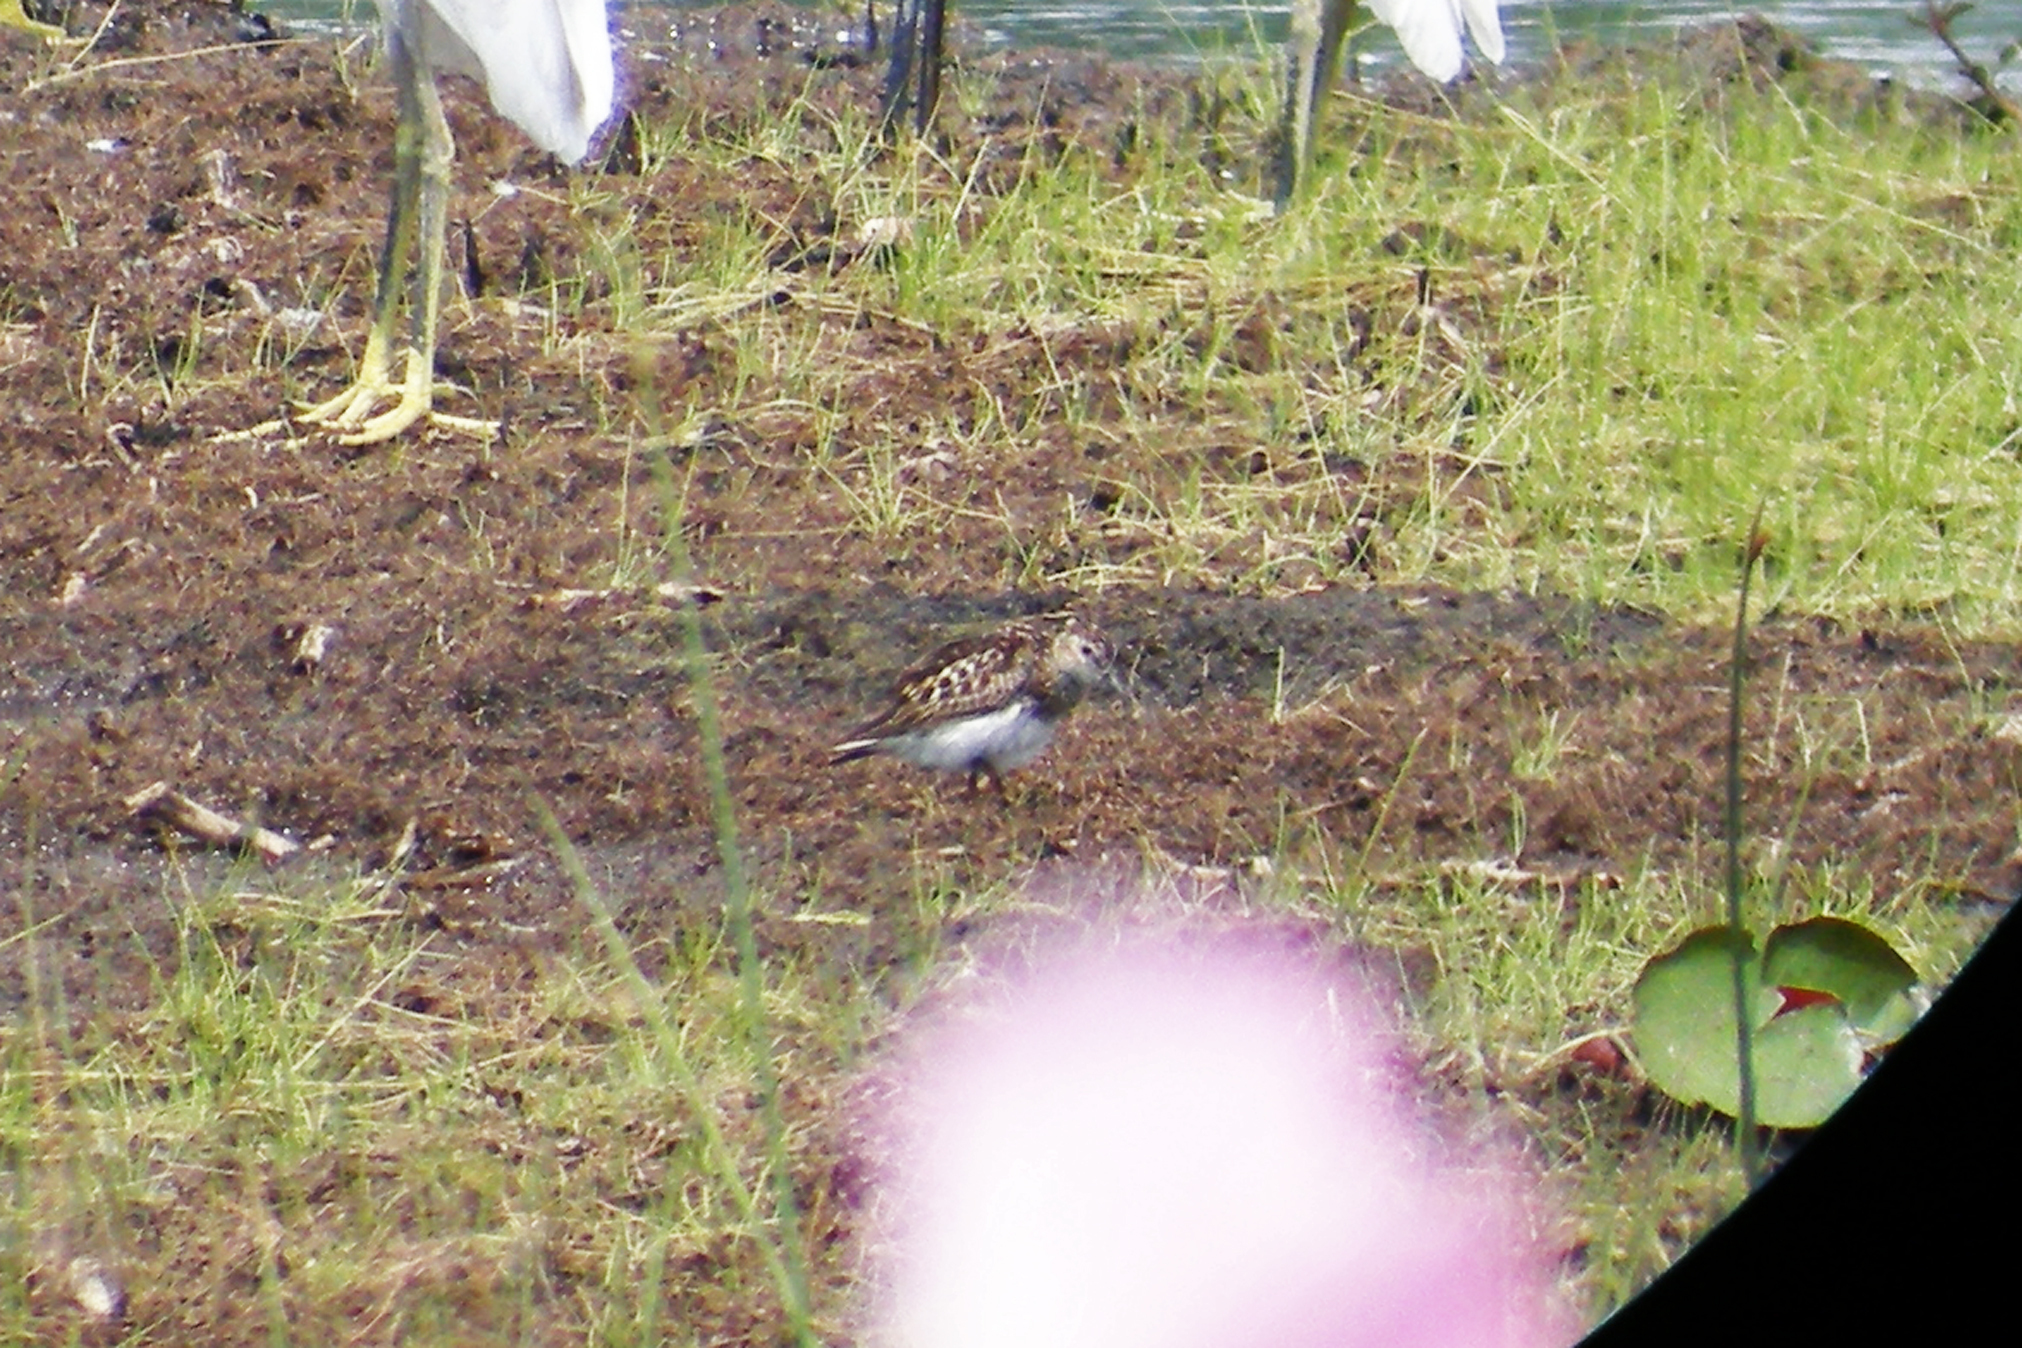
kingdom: Animalia
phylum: Chordata
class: Aves
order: Charadriiformes
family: Scolopacidae
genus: Calidris
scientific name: Calidris minutilla
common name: Least sandpiper
